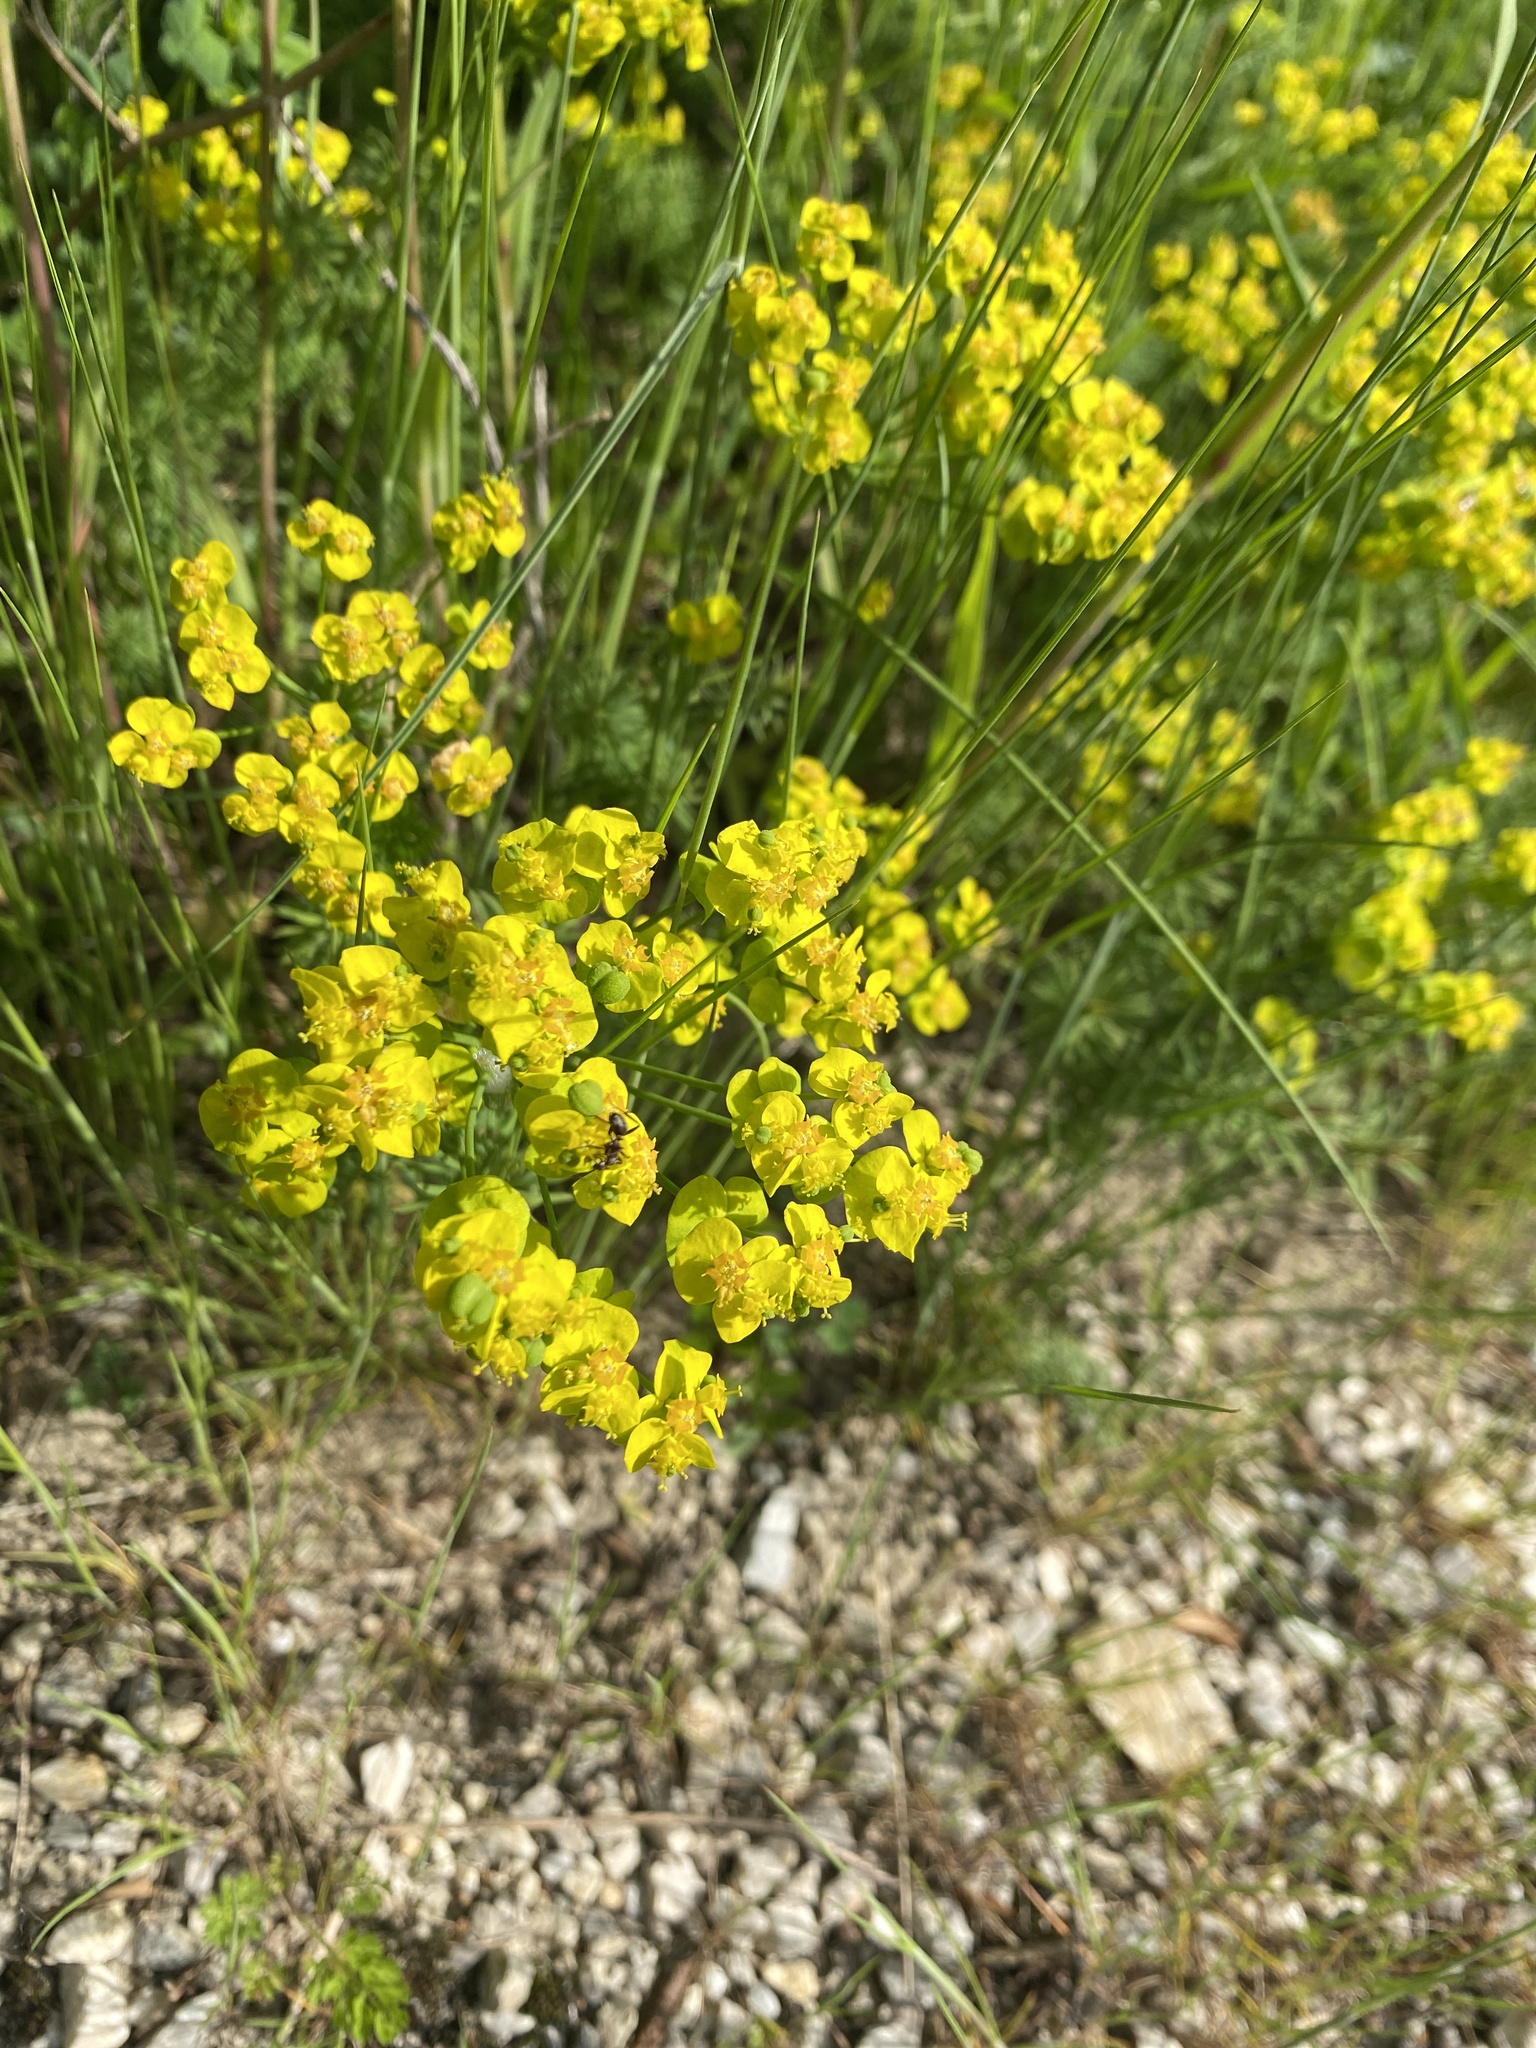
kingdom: Plantae
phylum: Tracheophyta
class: Magnoliopsida
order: Malpighiales
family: Euphorbiaceae
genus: Euphorbia
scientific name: Euphorbia cyparissias
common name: Cypress spurge
